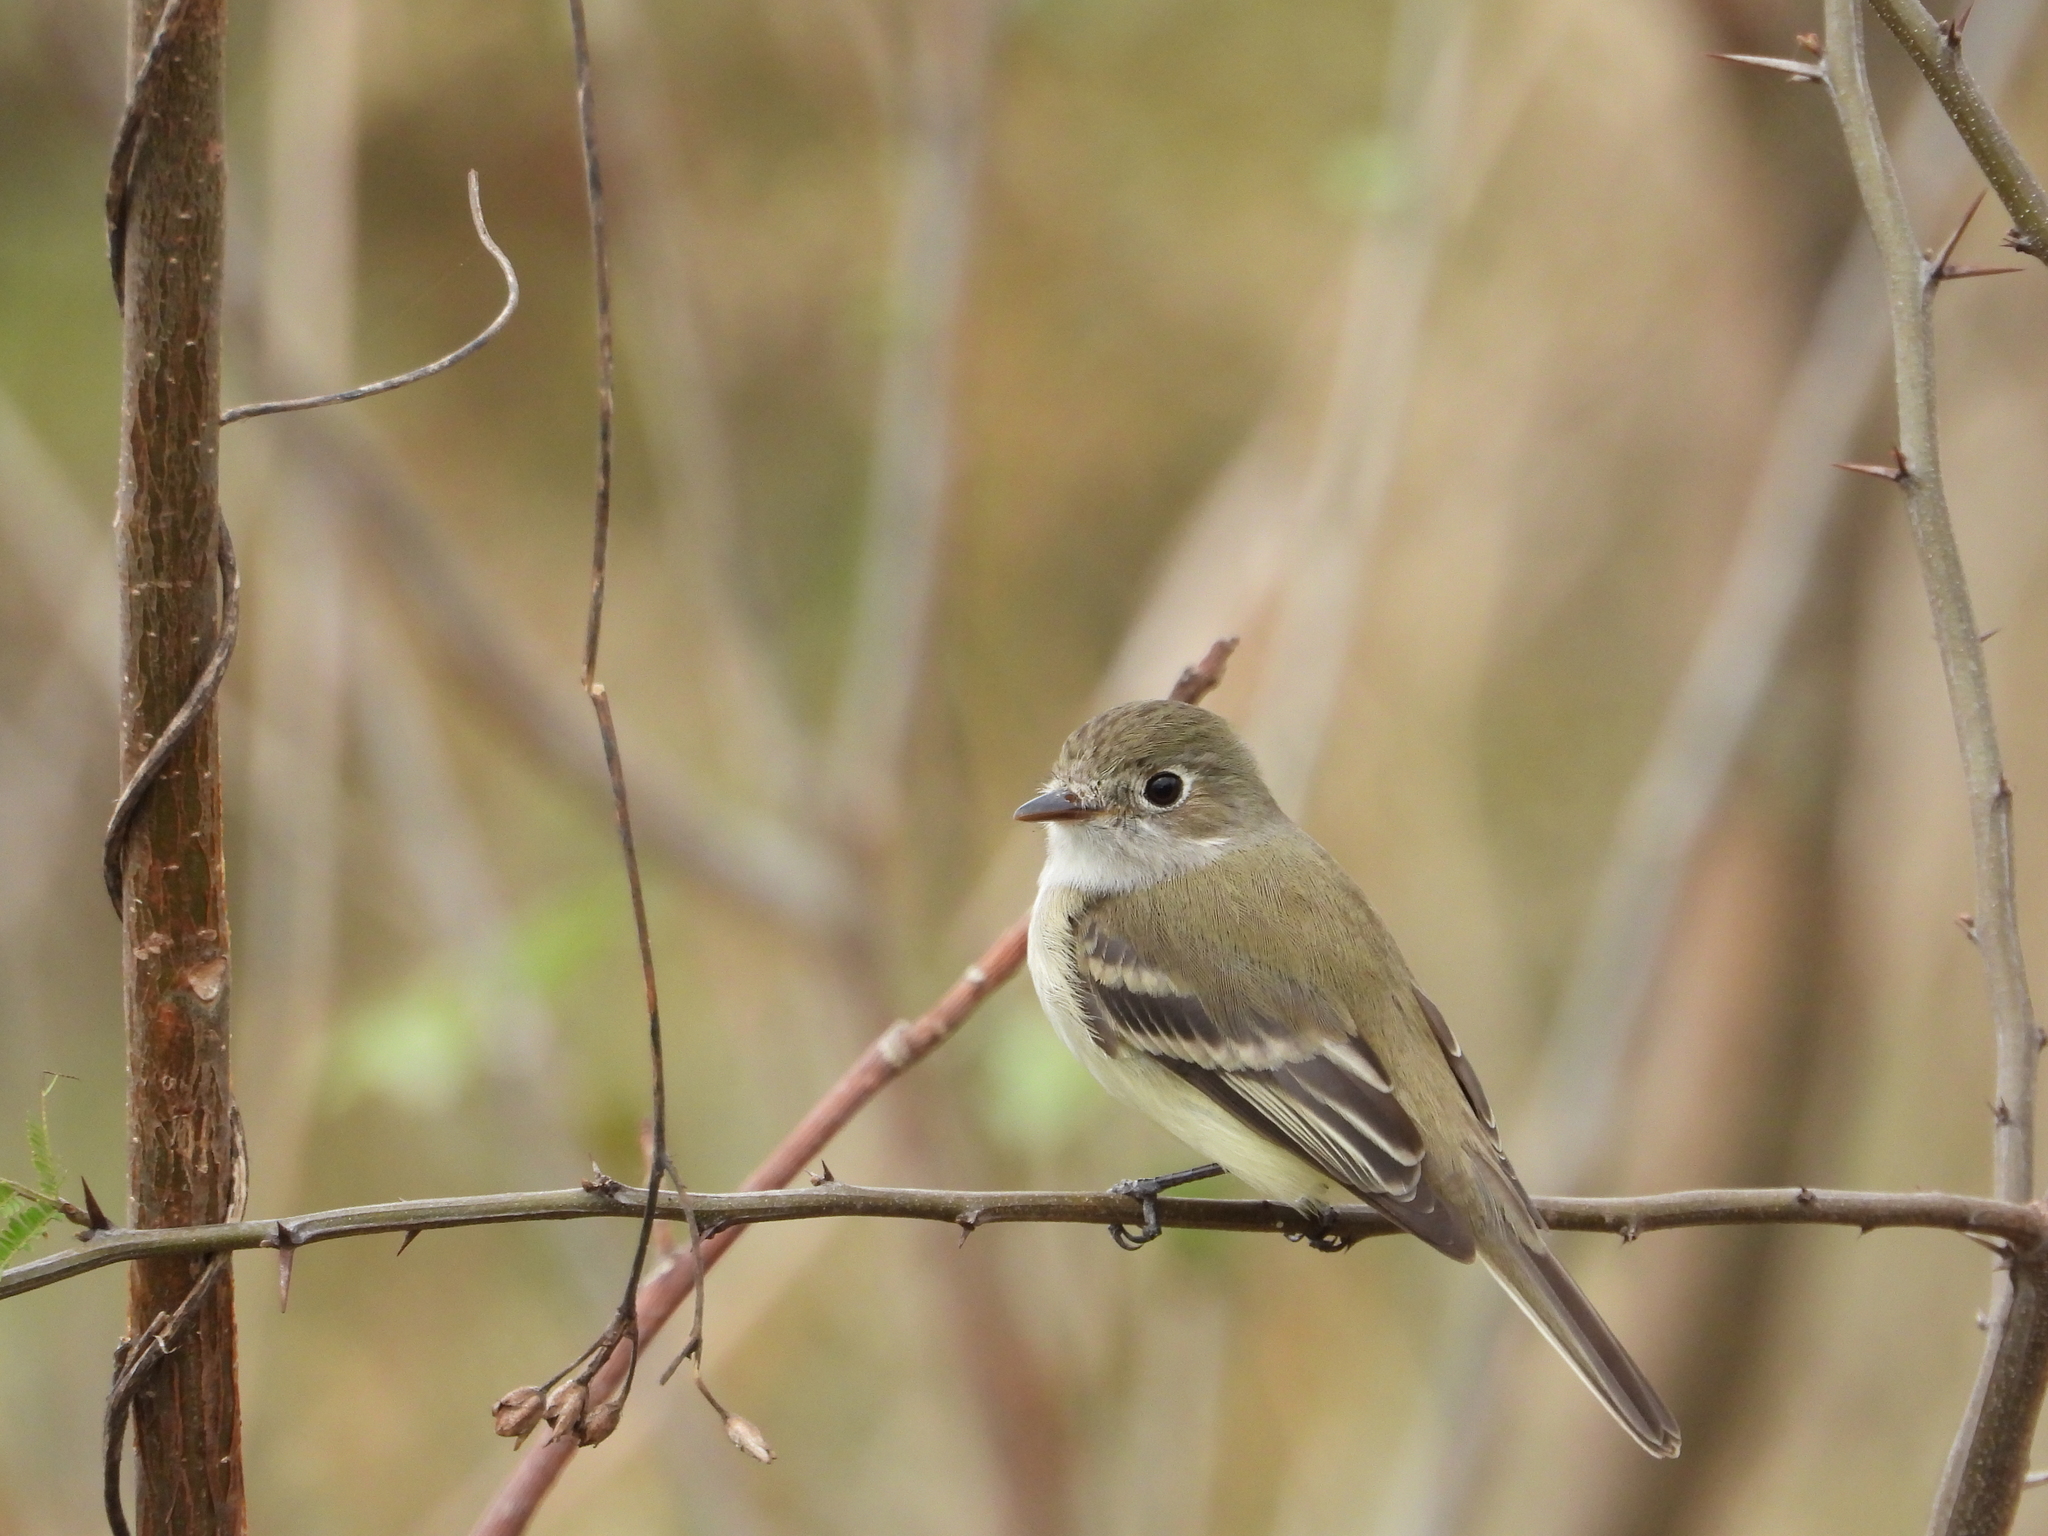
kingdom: Animalia
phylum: Chordata
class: Aves
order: Passeriformes
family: Tyrannidae
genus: Empidonax
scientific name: Empidonax minimus
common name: Least flycatcher
